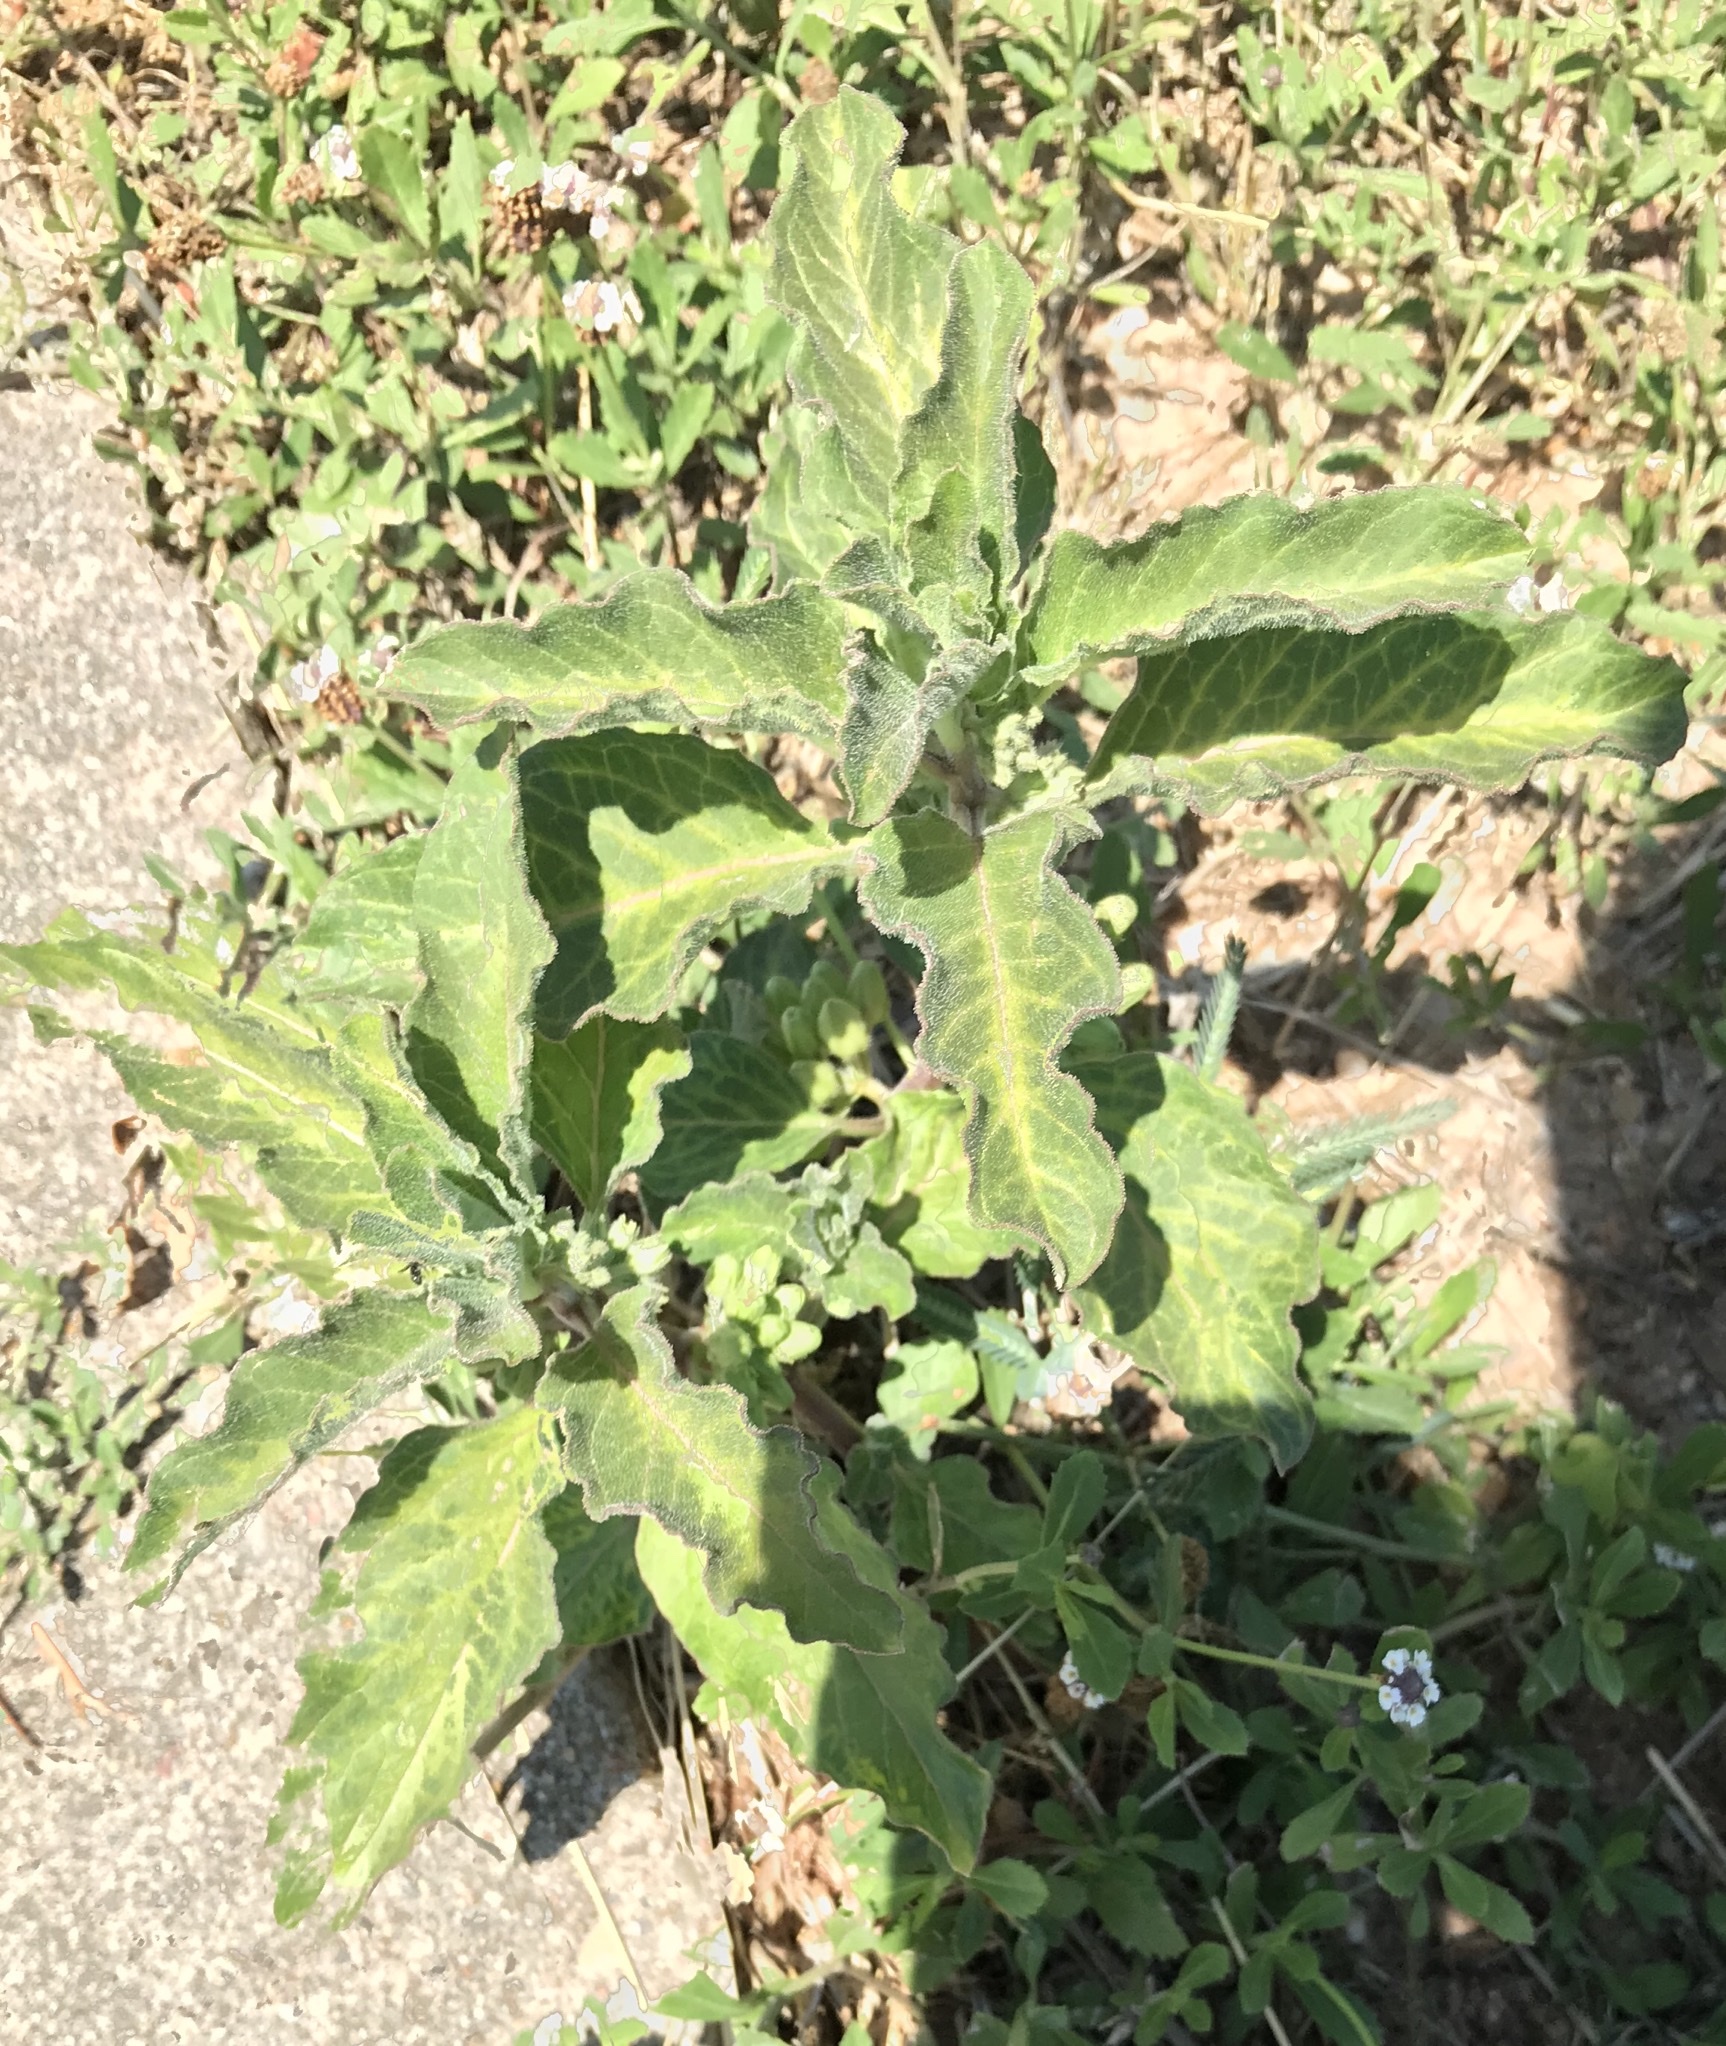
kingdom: Plantae
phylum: Tracheophyta
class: Magnoliopsida
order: Gentianales
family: Apocynaceae
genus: Asclepias
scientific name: Asclepias oenotheroides
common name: Zizotes milkweed
